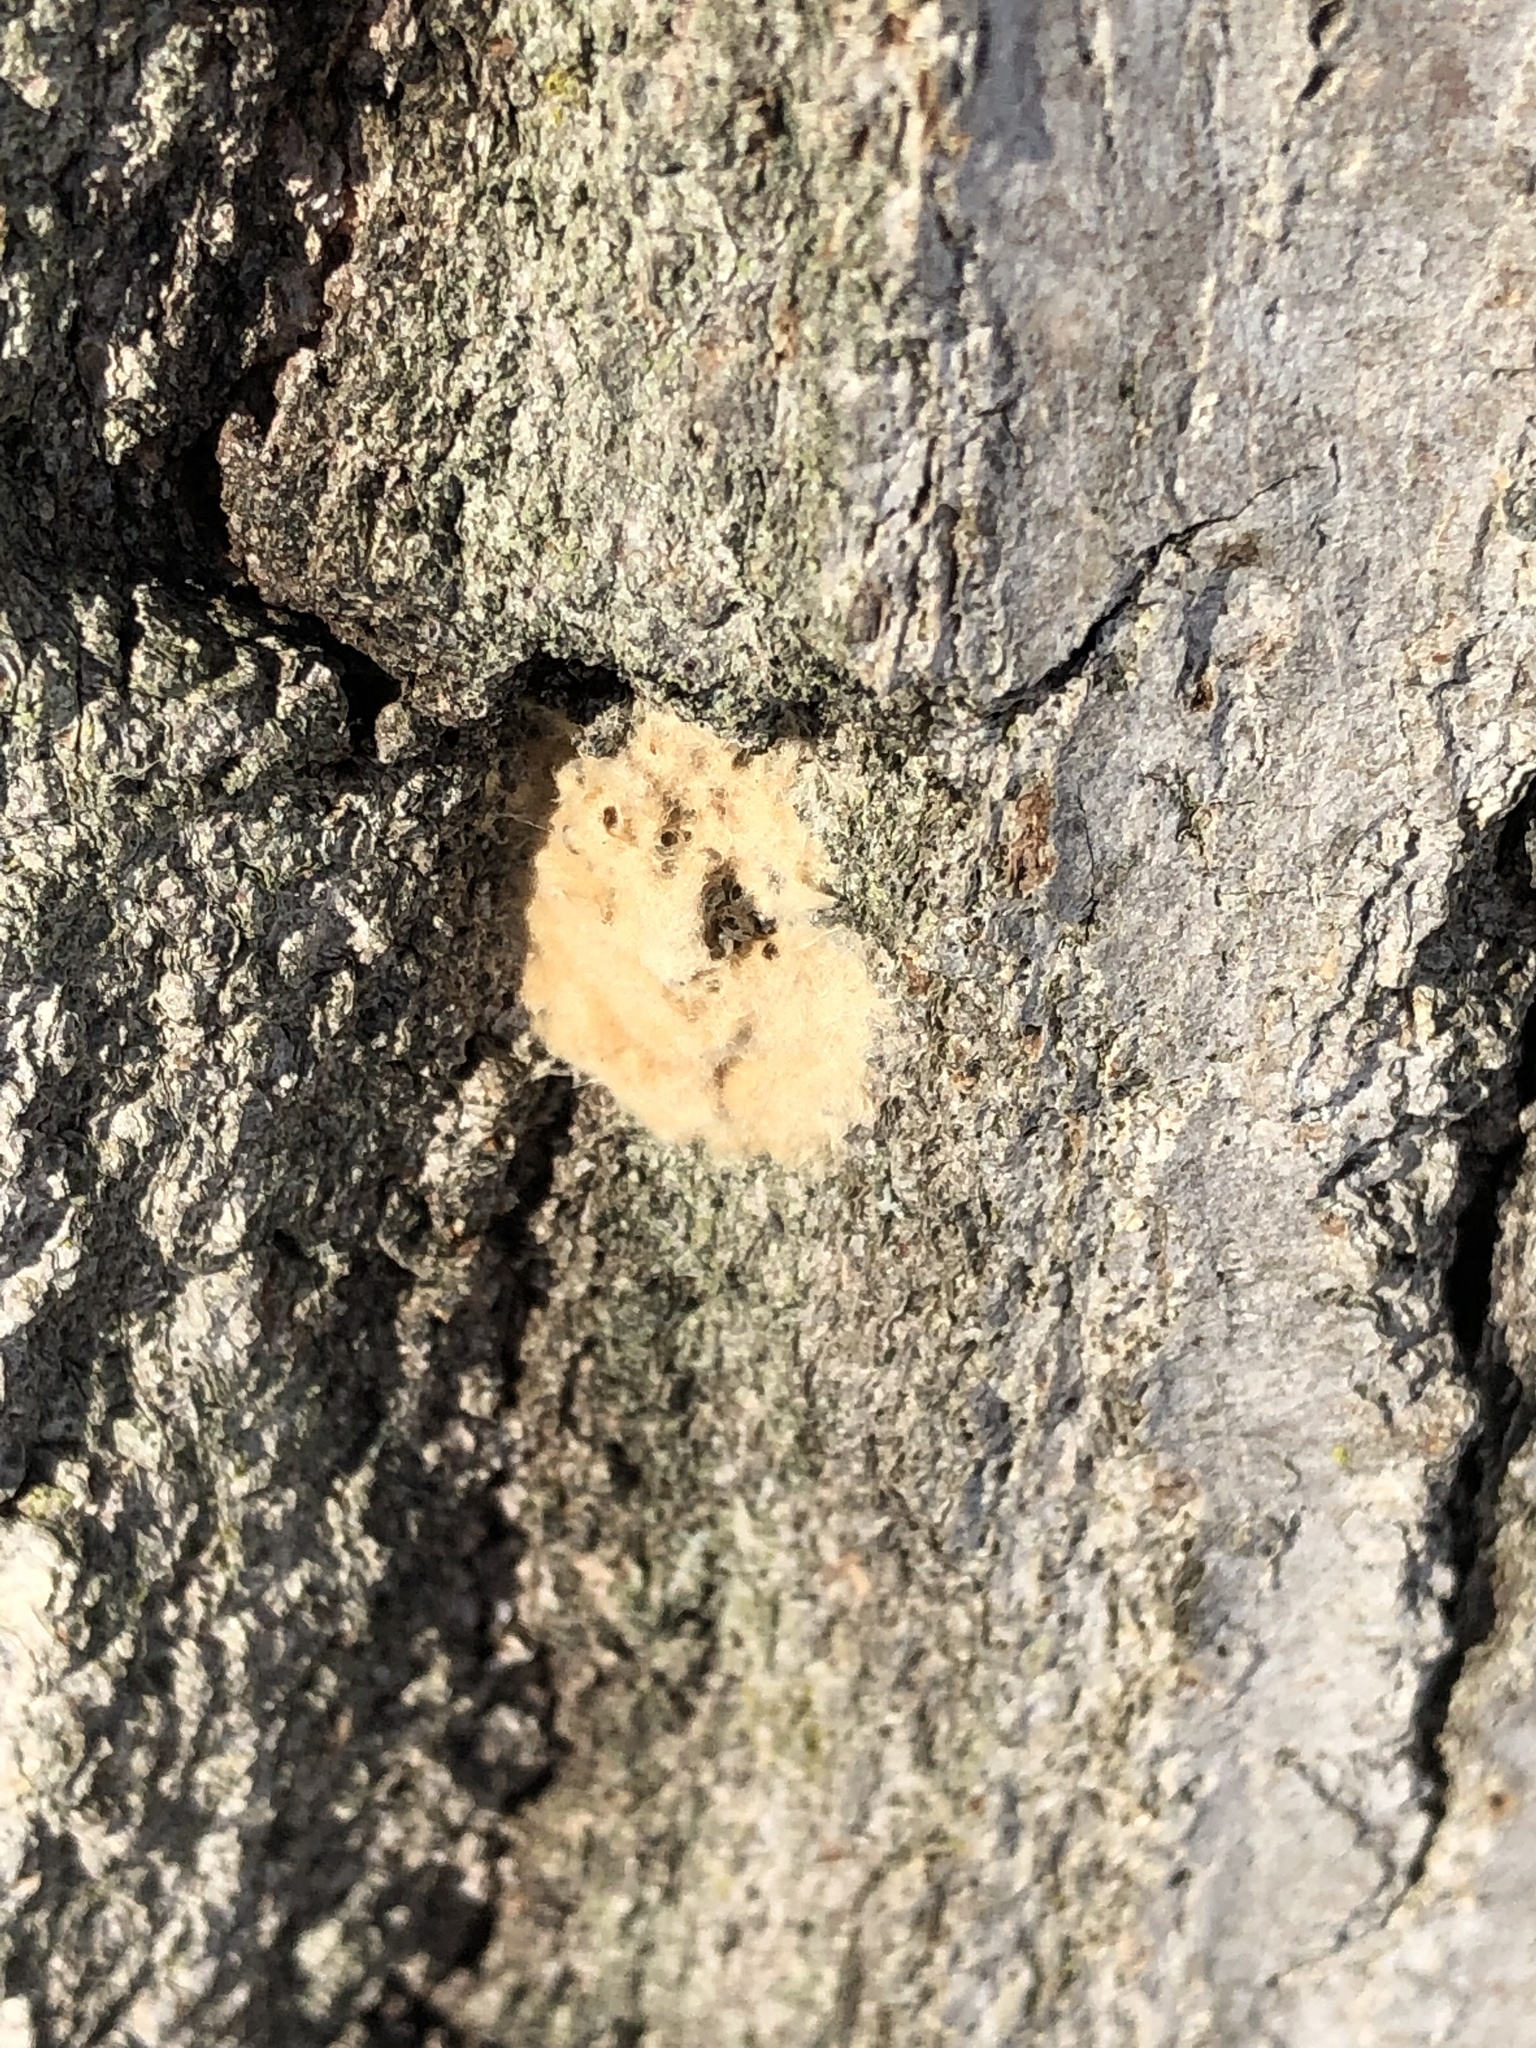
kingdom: Animalia
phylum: Arthropoda
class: Insecta
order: Lepidoptera
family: Erebidae
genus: Lymantria
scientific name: Lymantria dispar
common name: Gypsy moth
